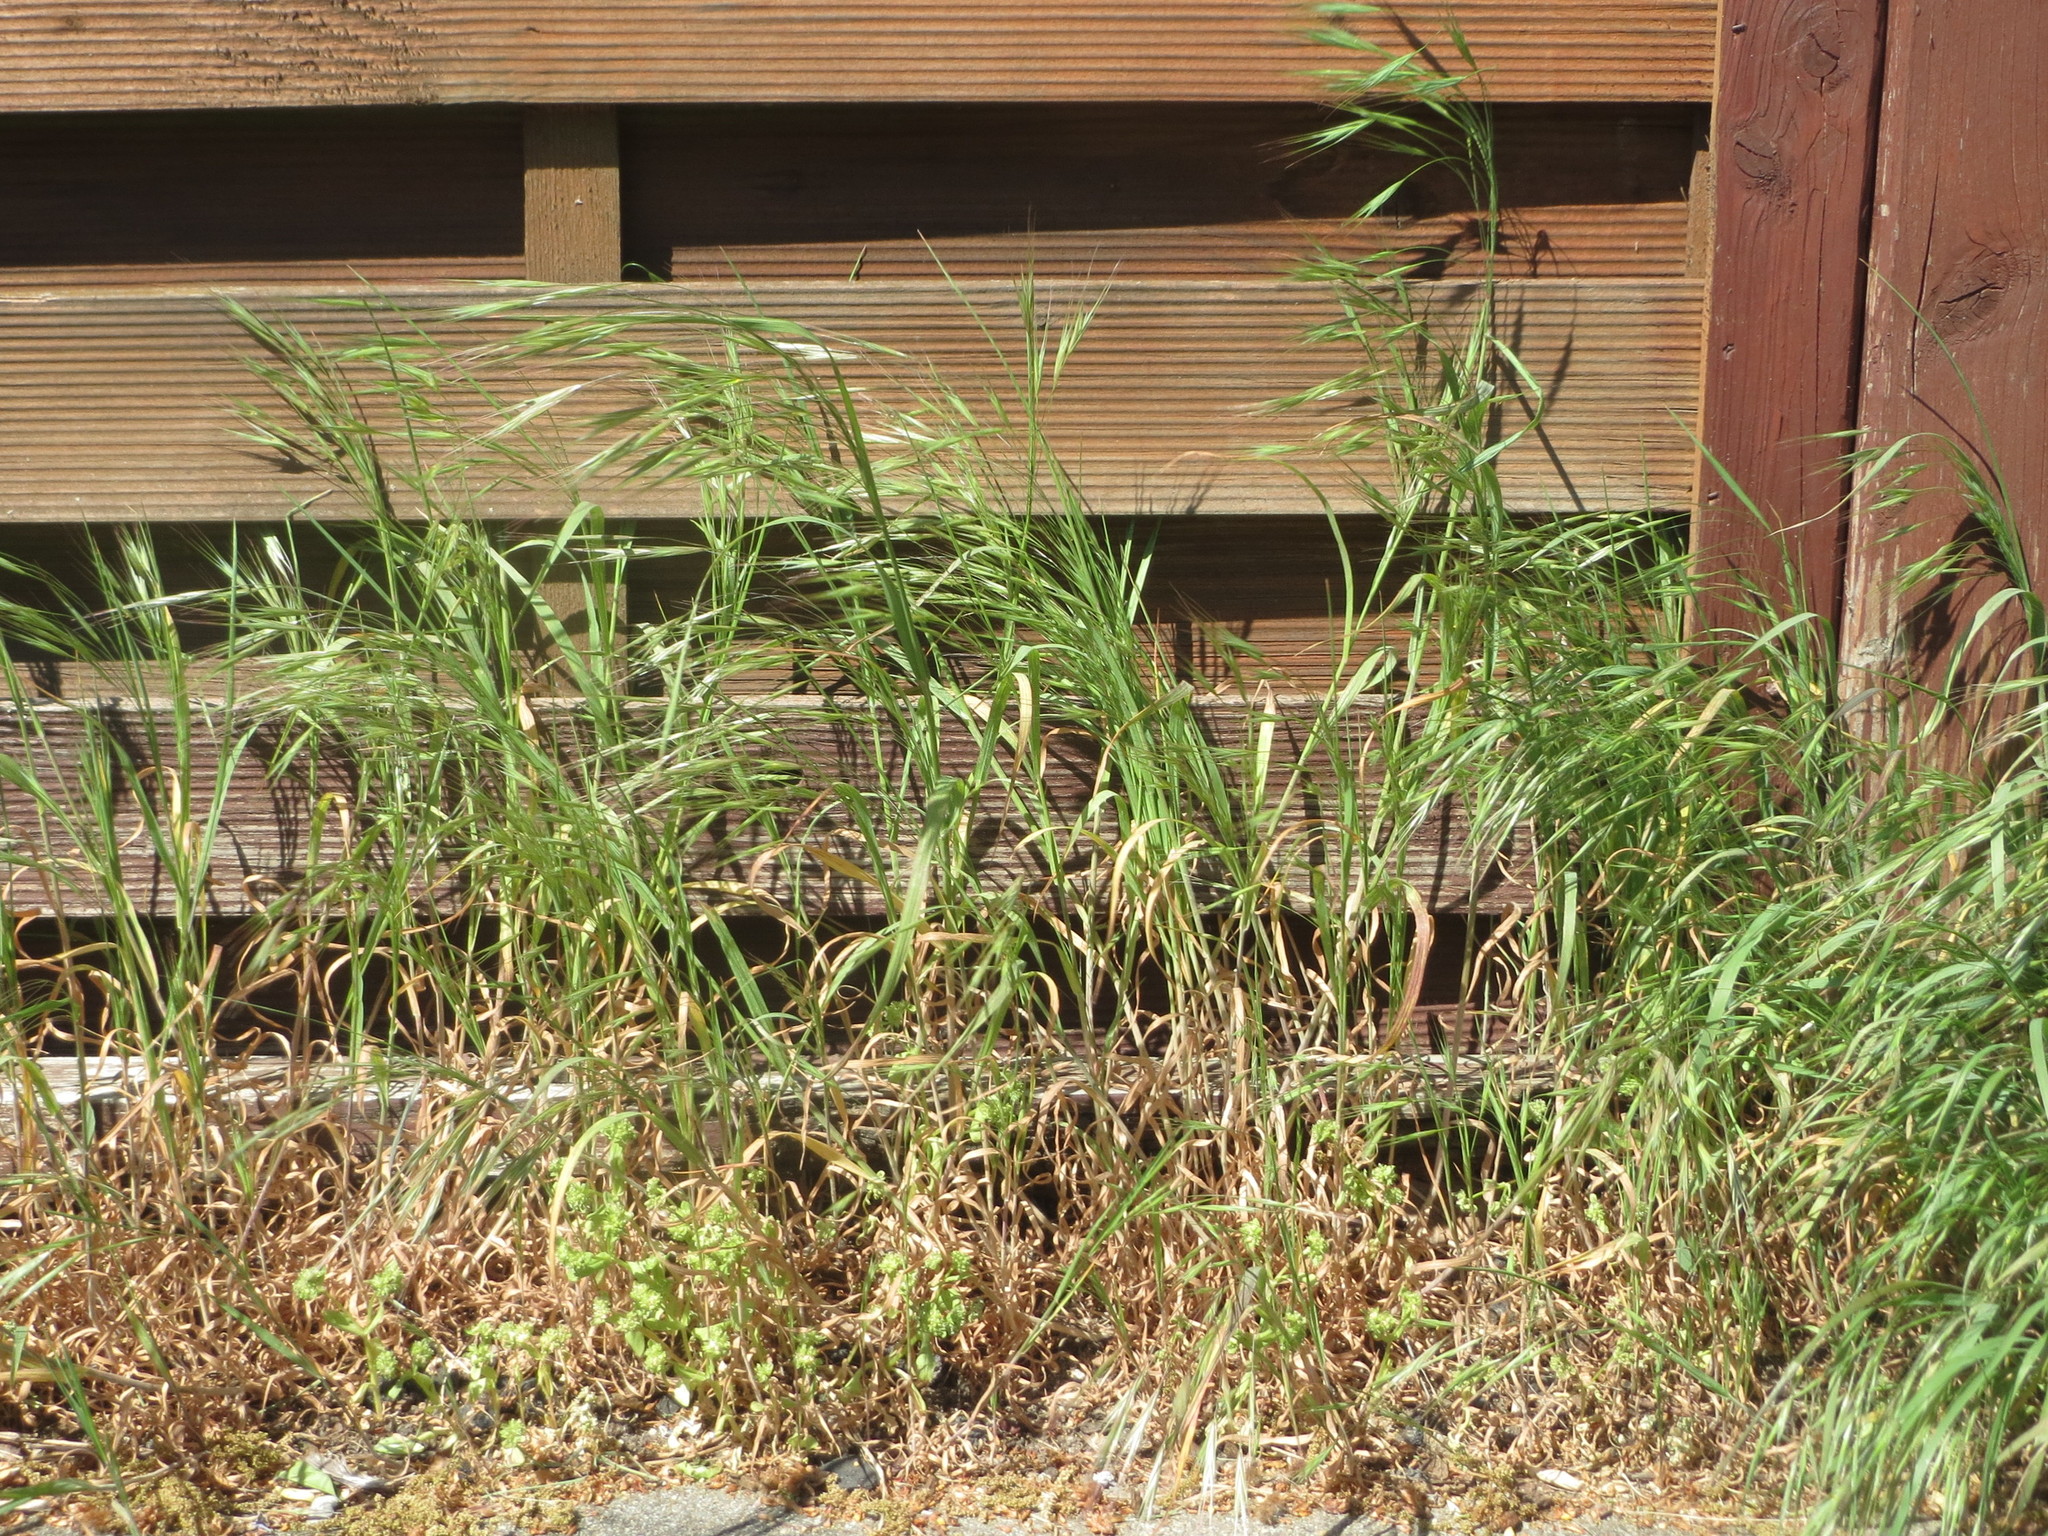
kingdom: Plantae
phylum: Tracheophyta
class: Liliopsida
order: Poales
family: Poaceae
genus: Bromus
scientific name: Bromus sterilis
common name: Poverty brome
